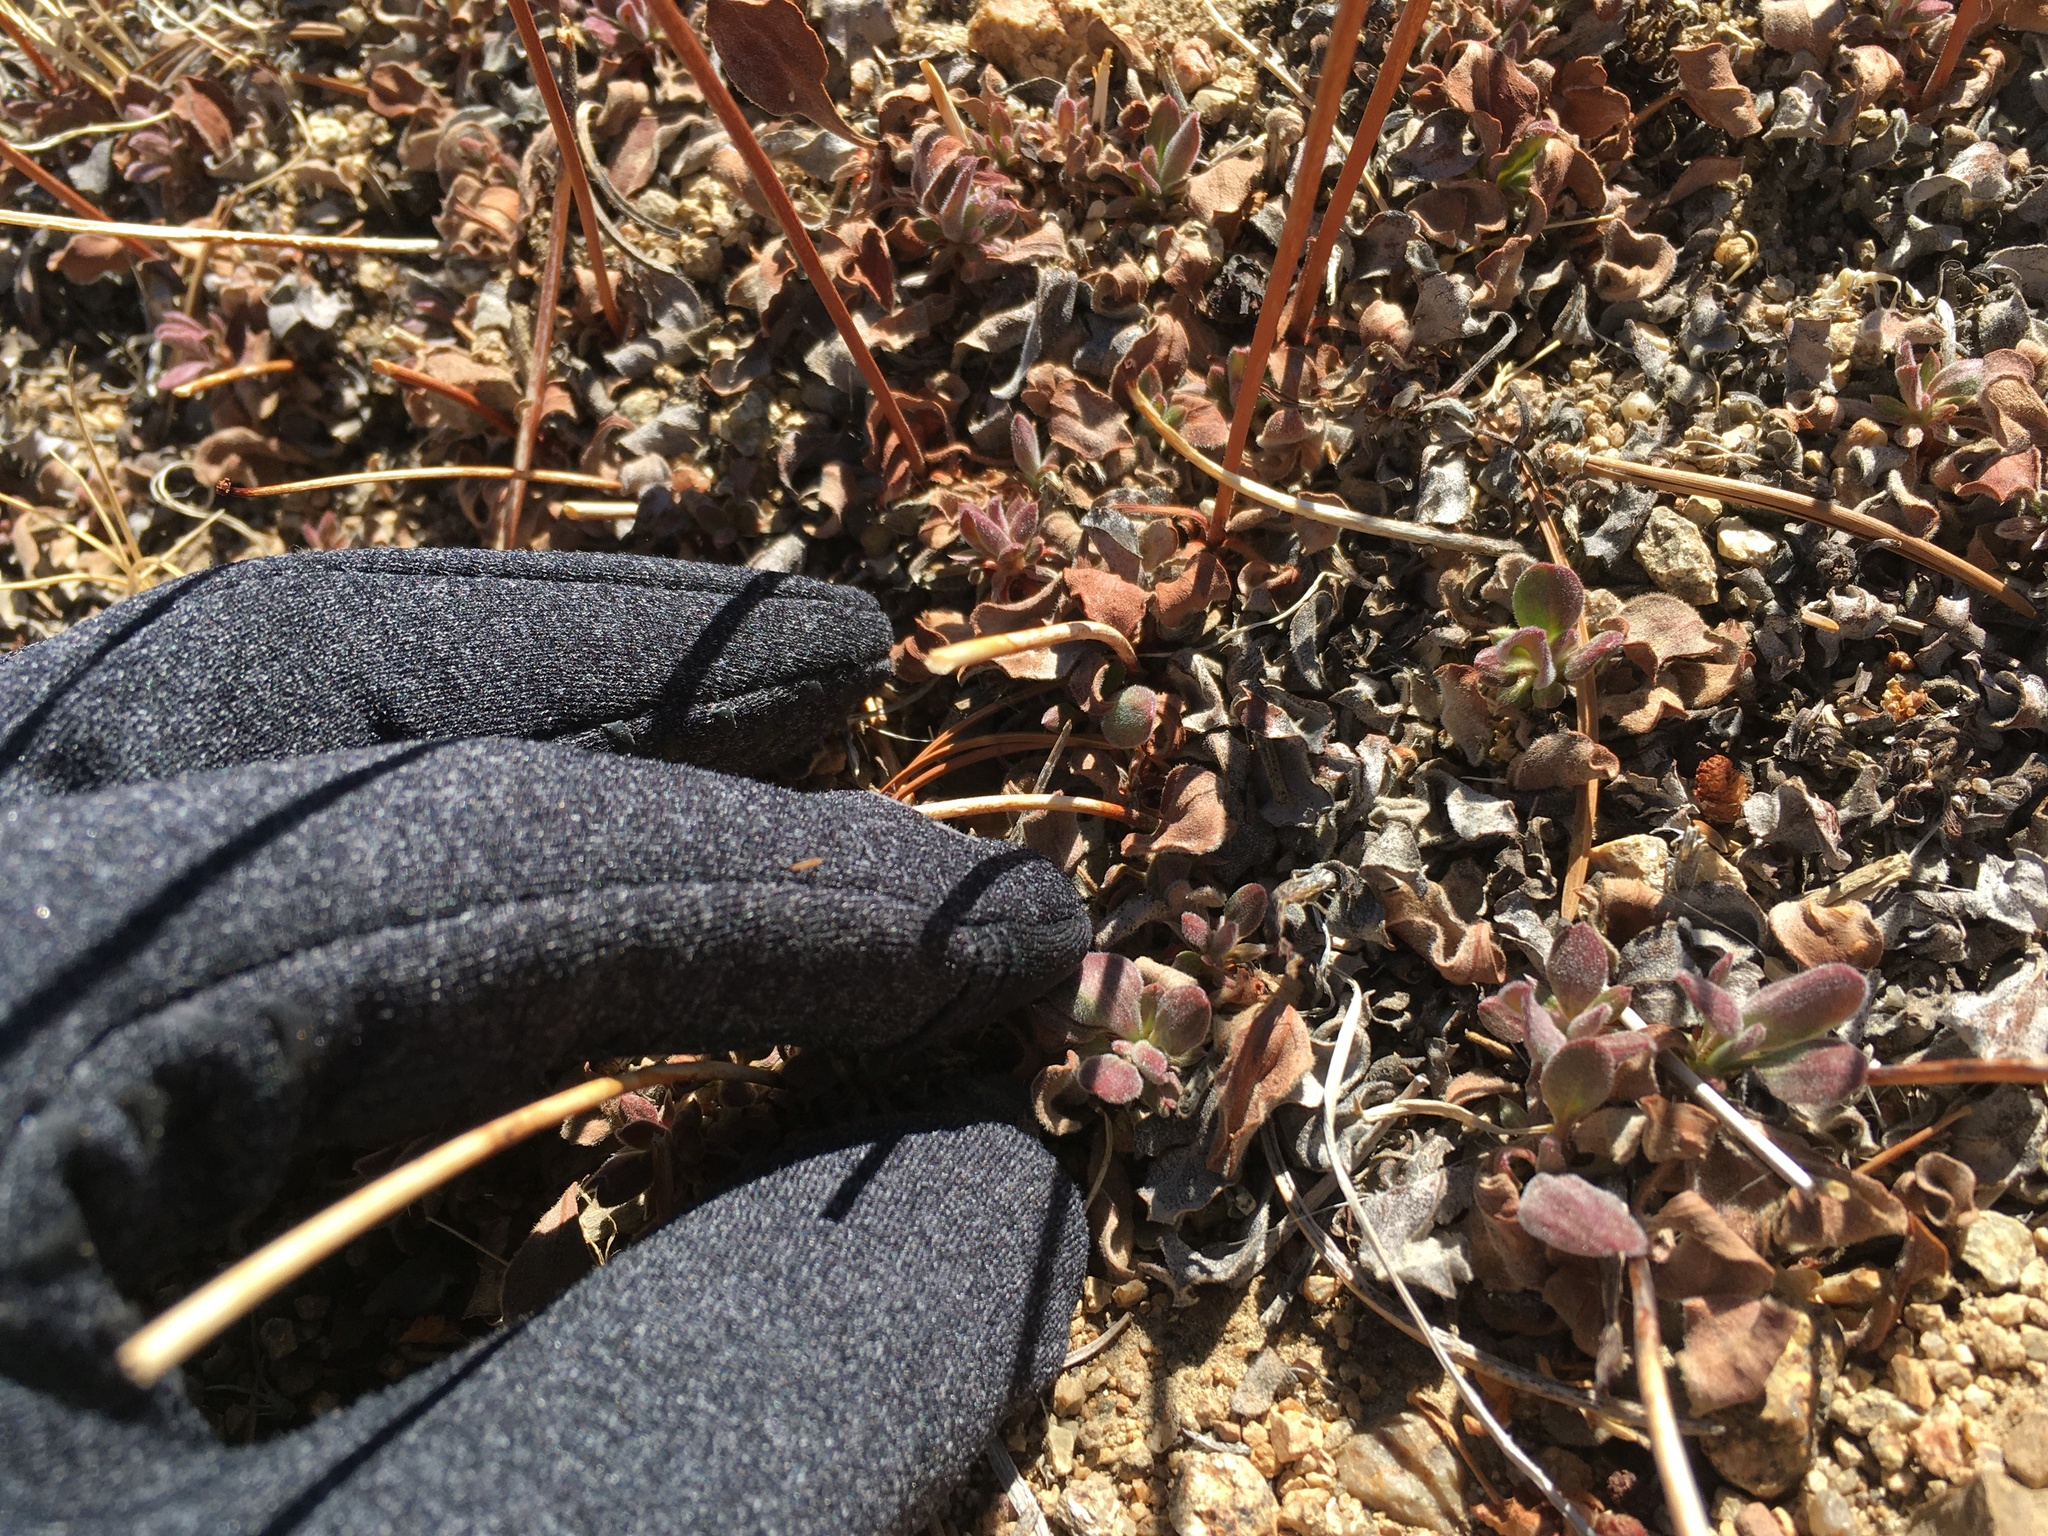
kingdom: Plantae
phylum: Tracheophyta
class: Magnoliopsida
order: Caryophyllales
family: Polygonaceae
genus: Eriogonum
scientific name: Eriogonum latens
